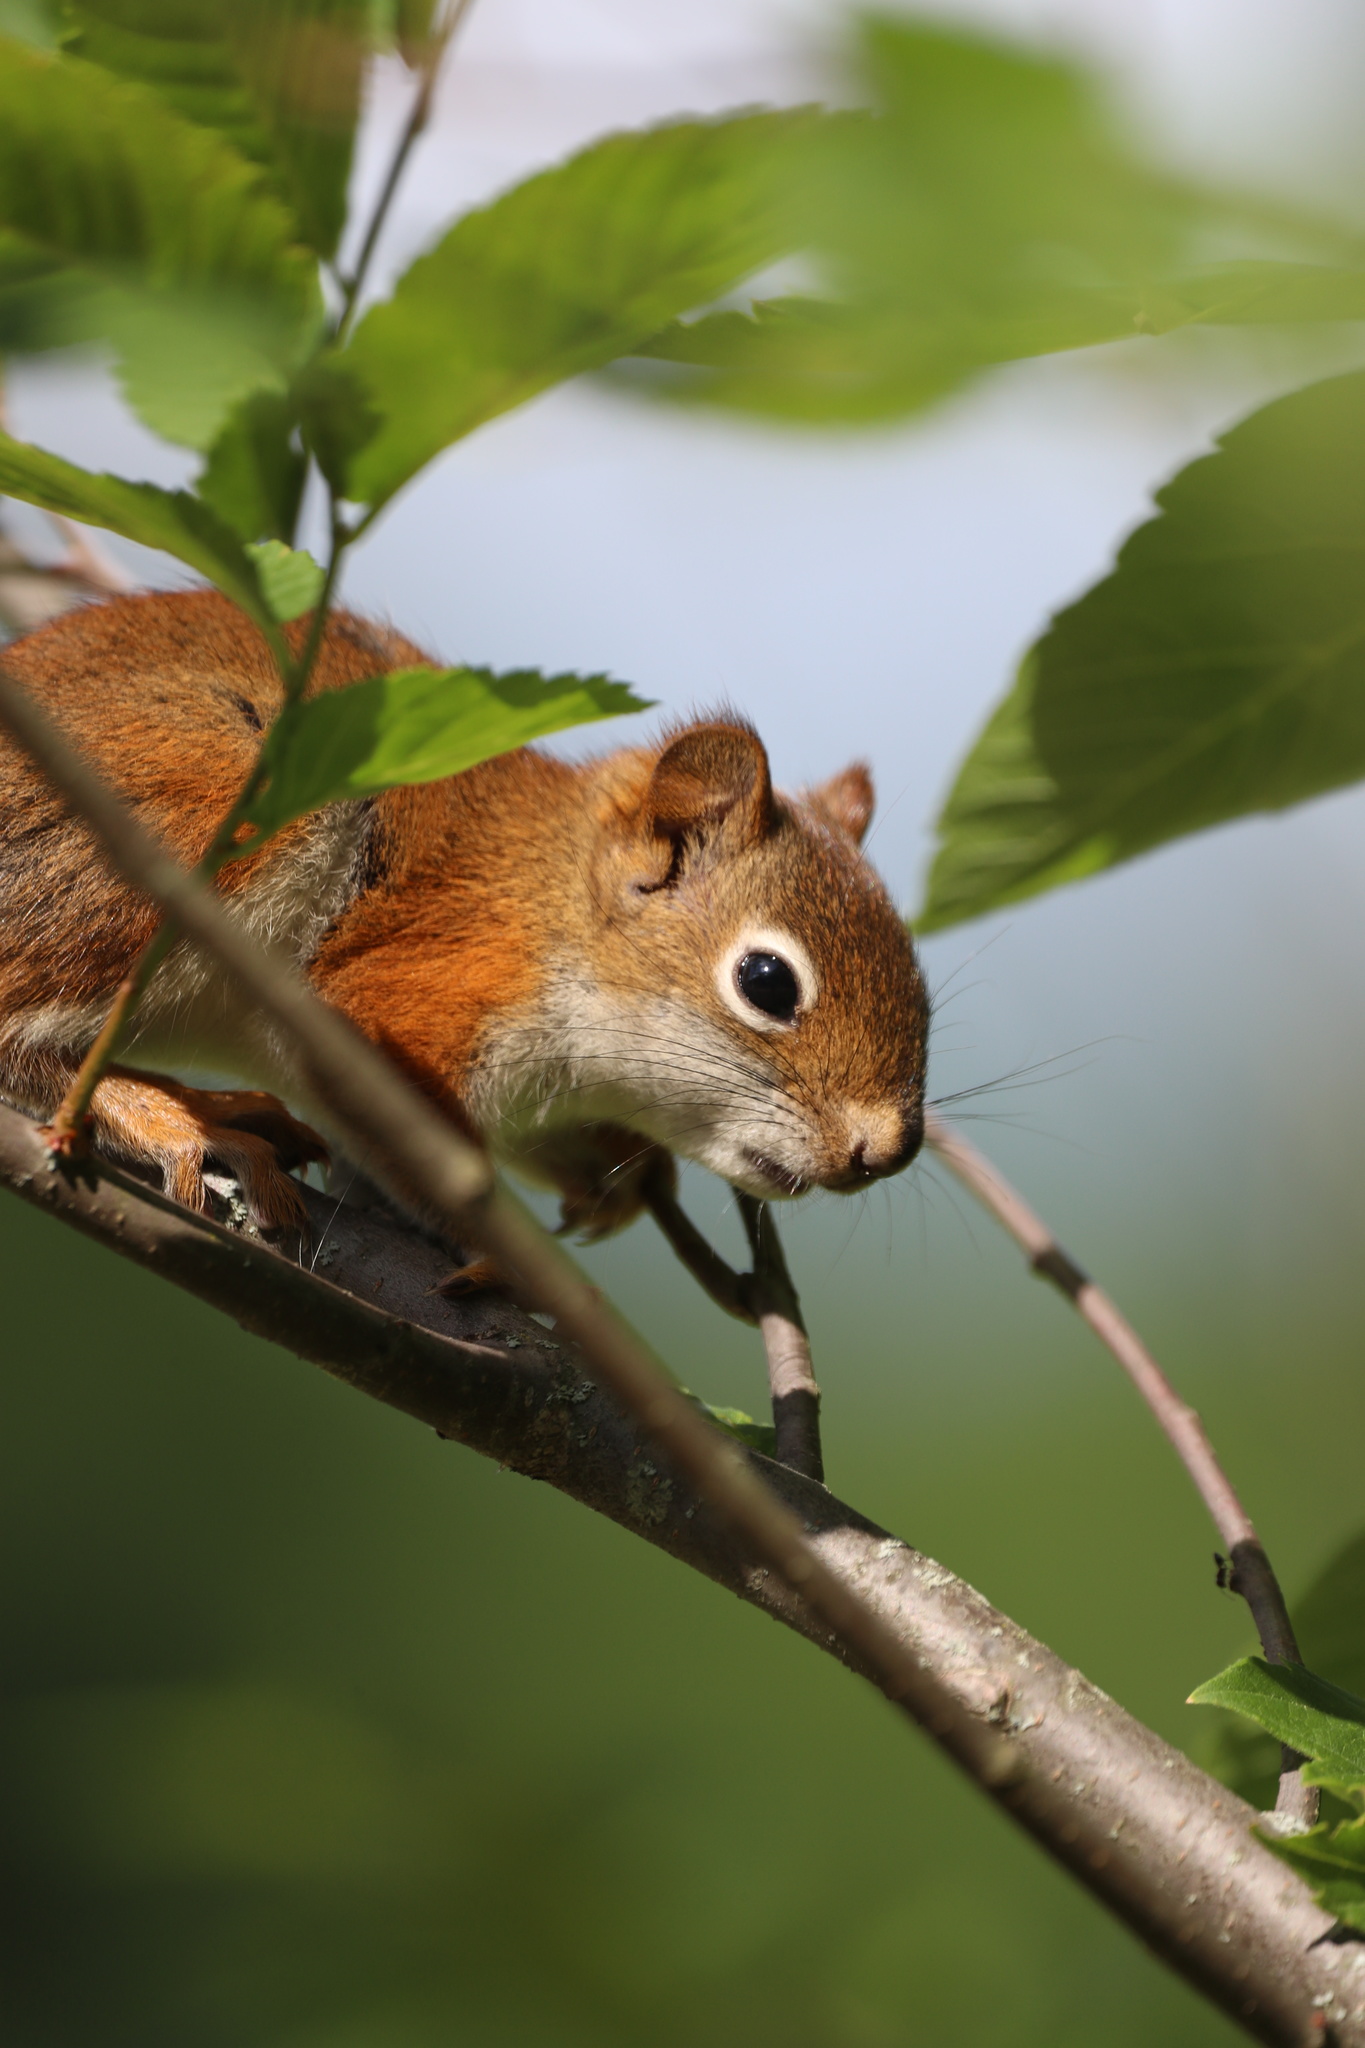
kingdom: Animalia
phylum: Chordata
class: Mammalia
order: Rodentia
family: Sciuridae
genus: Tamiasciurus
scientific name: Tamiasciurus hudsonicus
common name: Red squirrel
